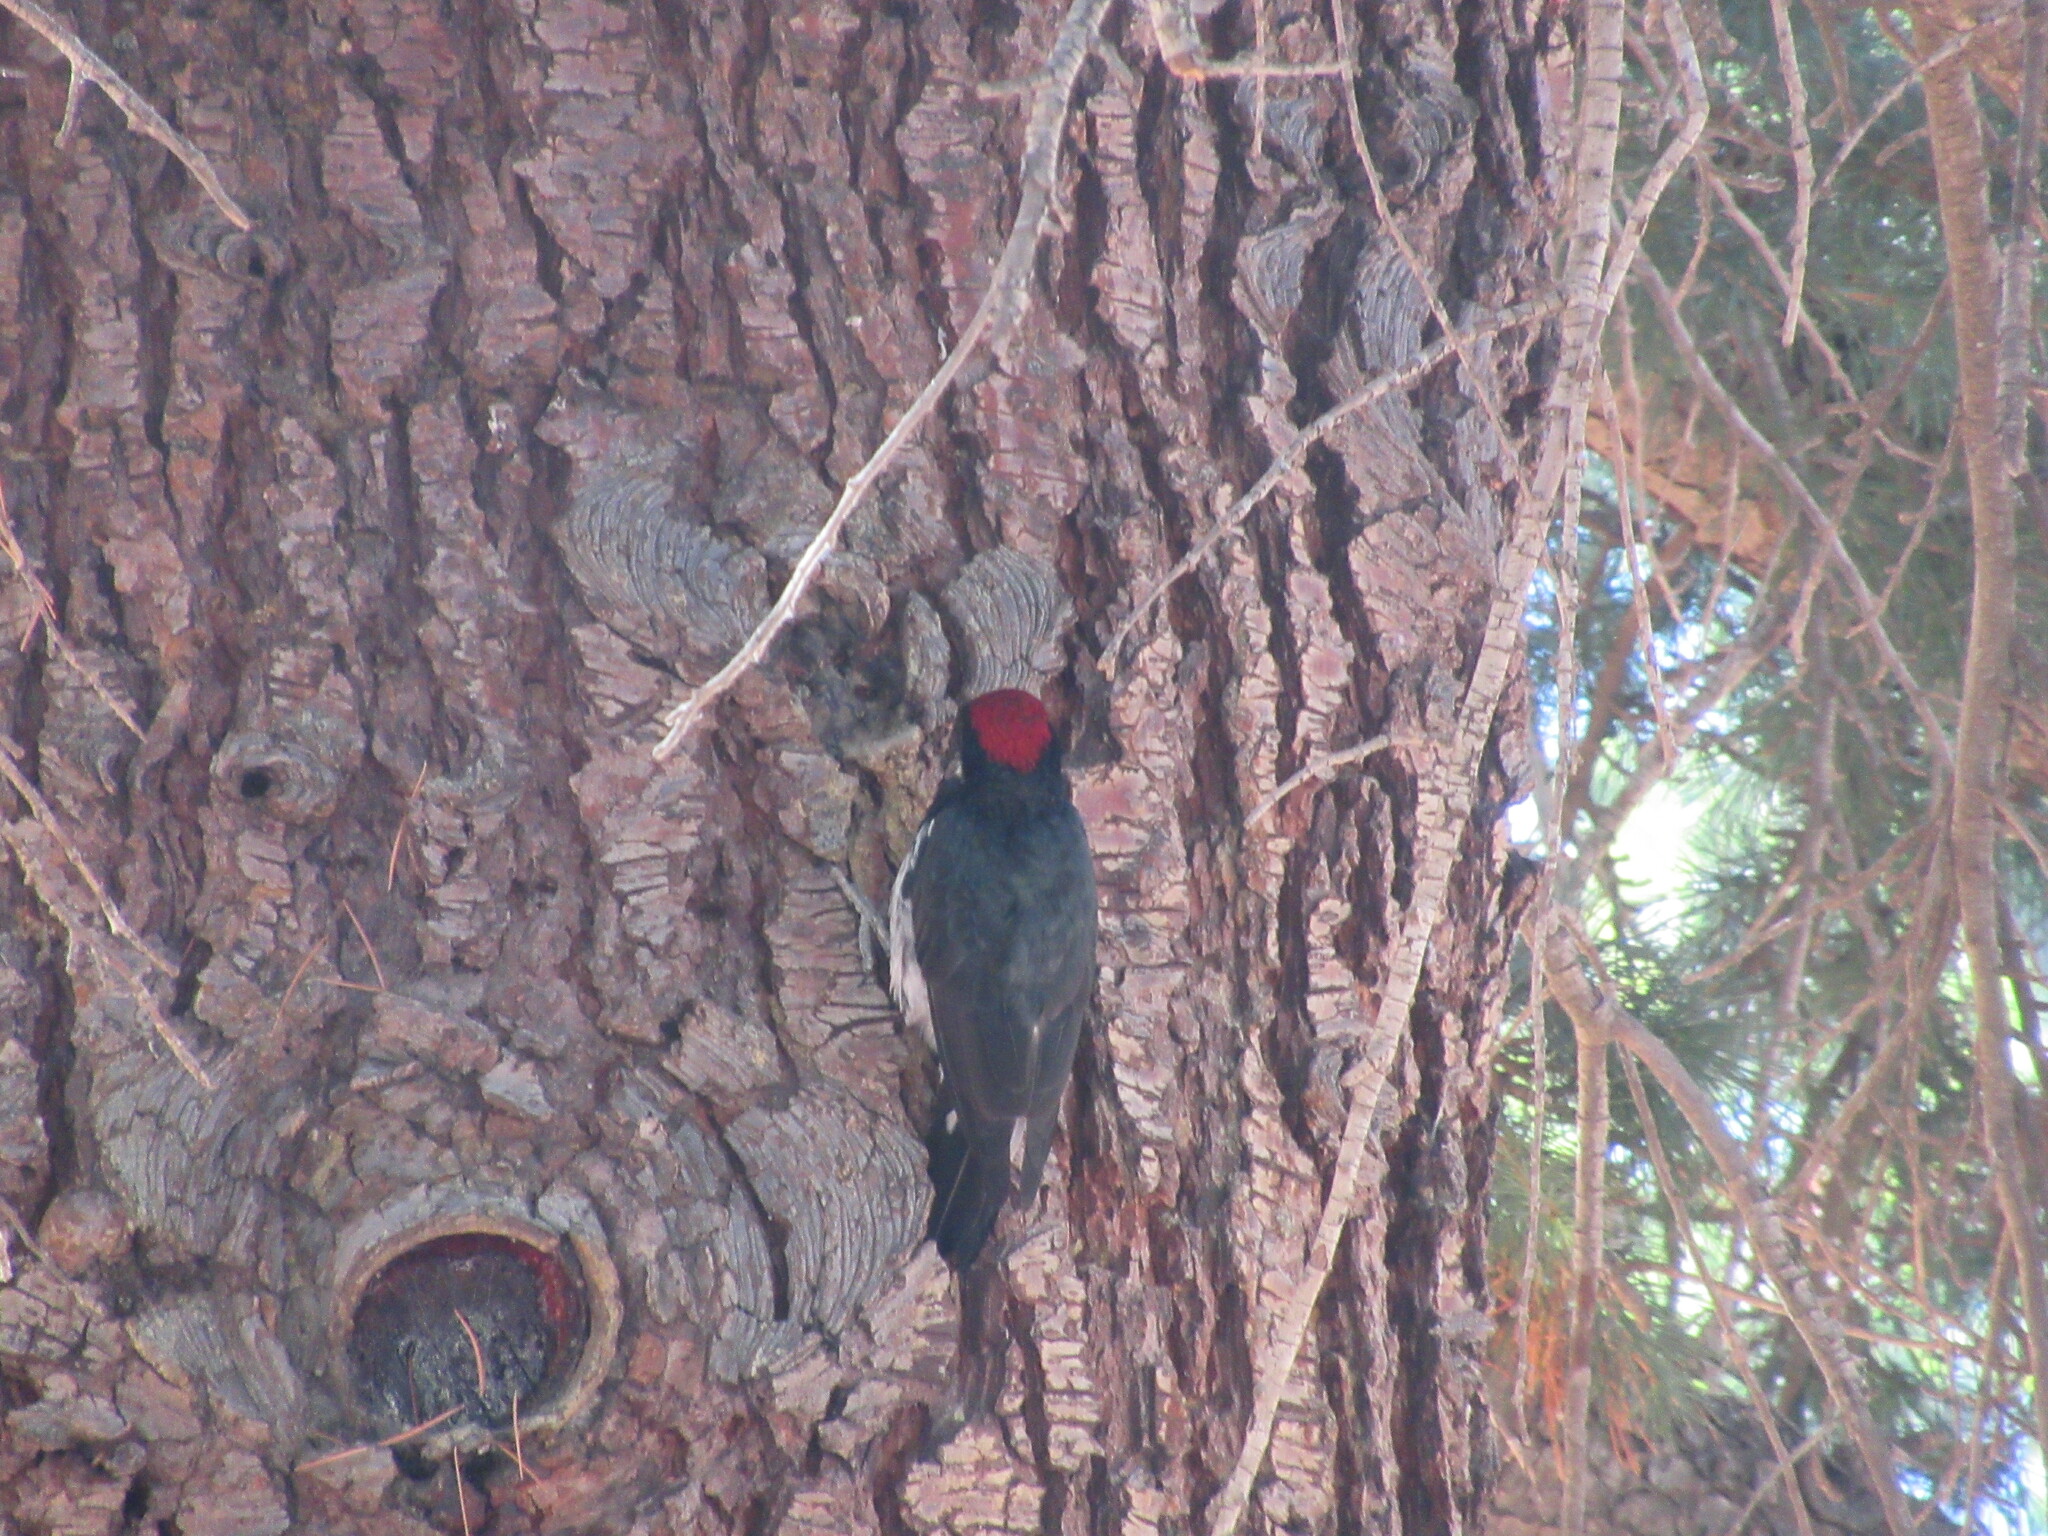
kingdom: Animalia
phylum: Chordata
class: Aves
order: Piciformes
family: Picidae
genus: Melanerpes
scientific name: Melanerpes formicivorus
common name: Acorn woodpecker
